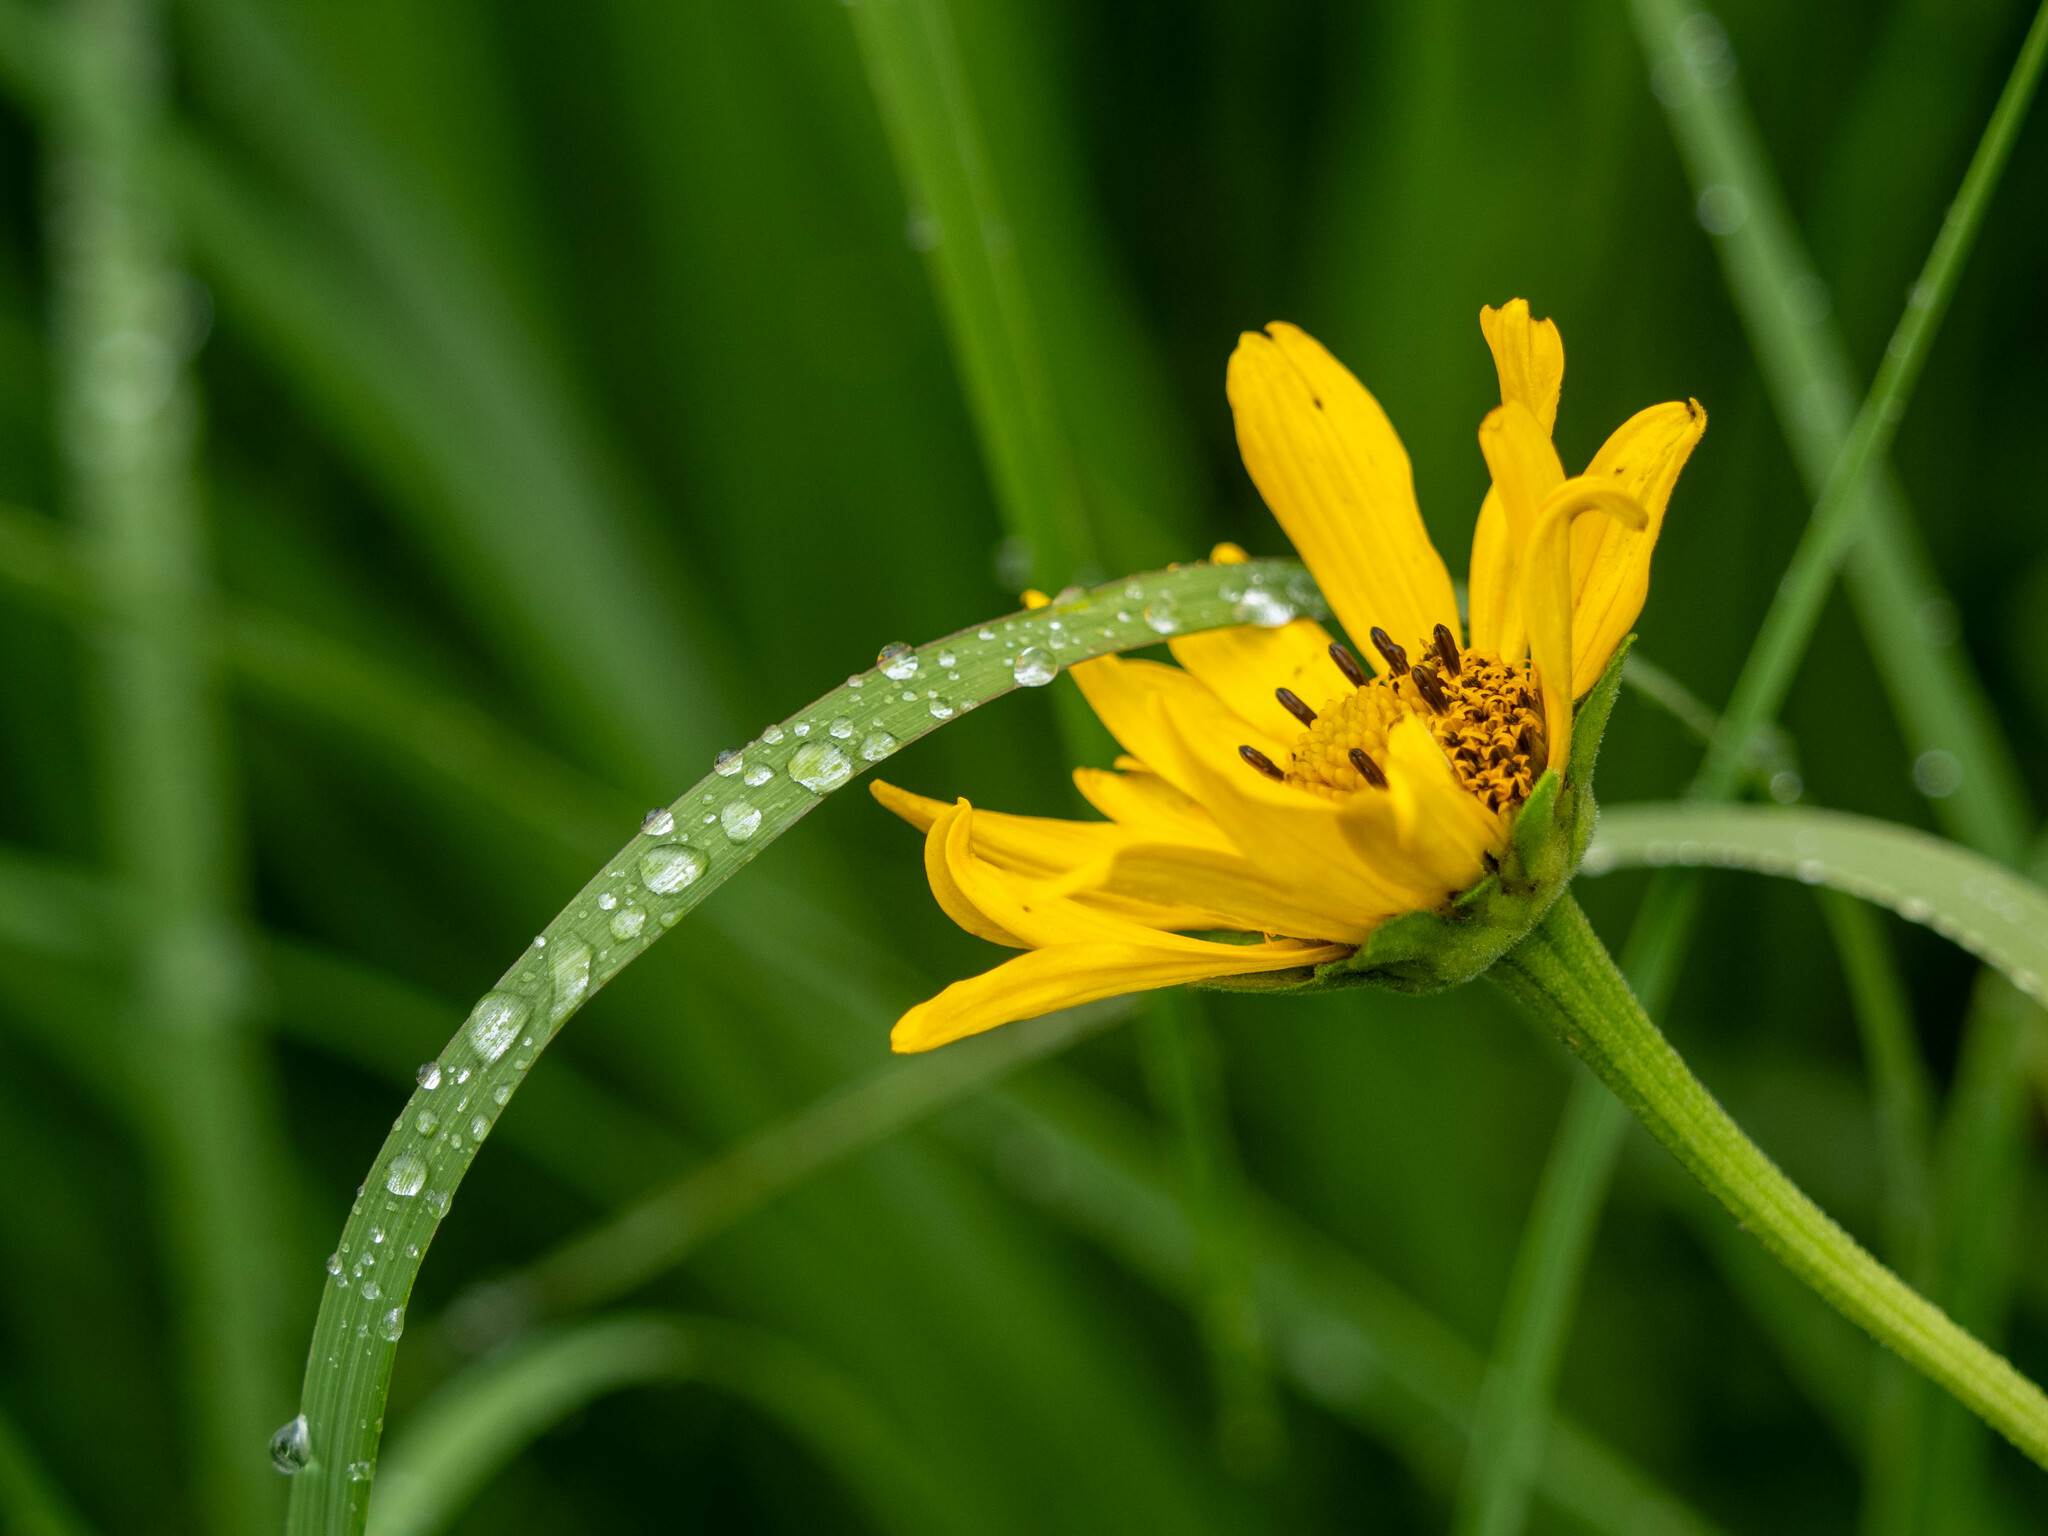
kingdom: Plantae
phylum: Tracheophyta
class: Magnoliopsida
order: Asterales
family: Asteraceae
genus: Heliopsis
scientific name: Heliopsis helianthoides
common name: False sunflower
